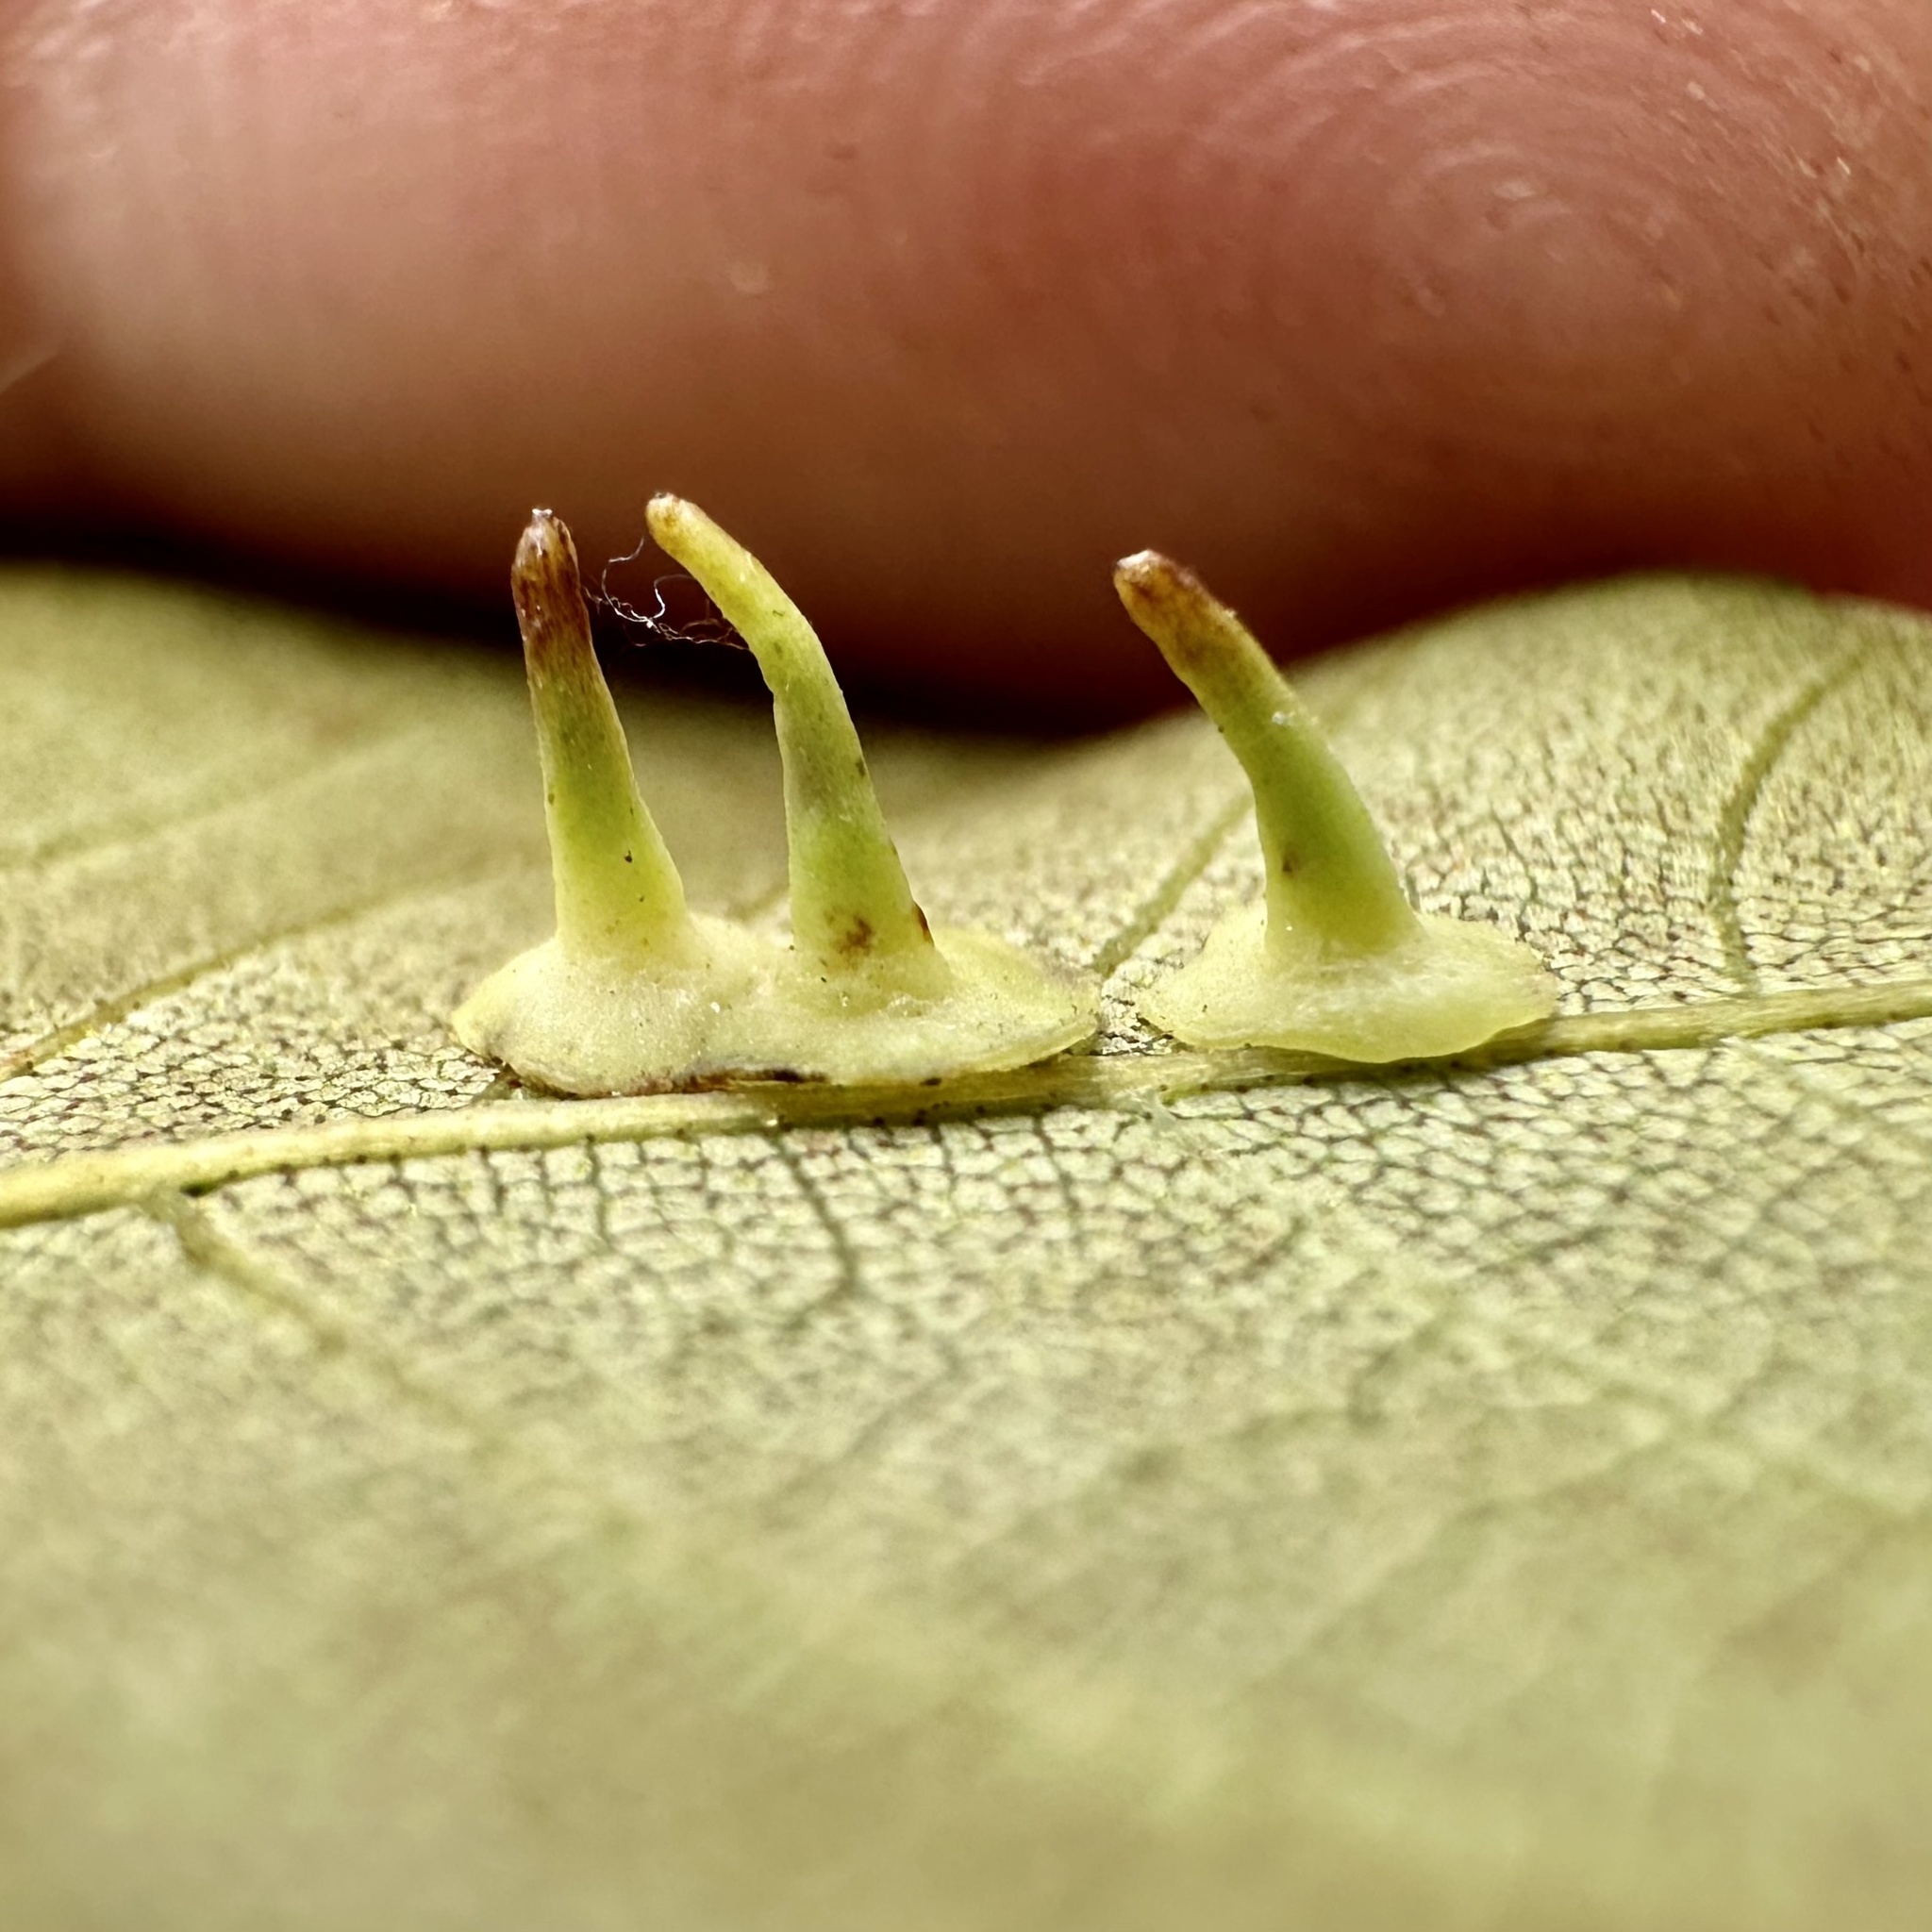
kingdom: Animalia
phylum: Arthropoda
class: Insecta
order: Diptera
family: Cecidomyiidae
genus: Caryomyia
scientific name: Caryomyia stellata
